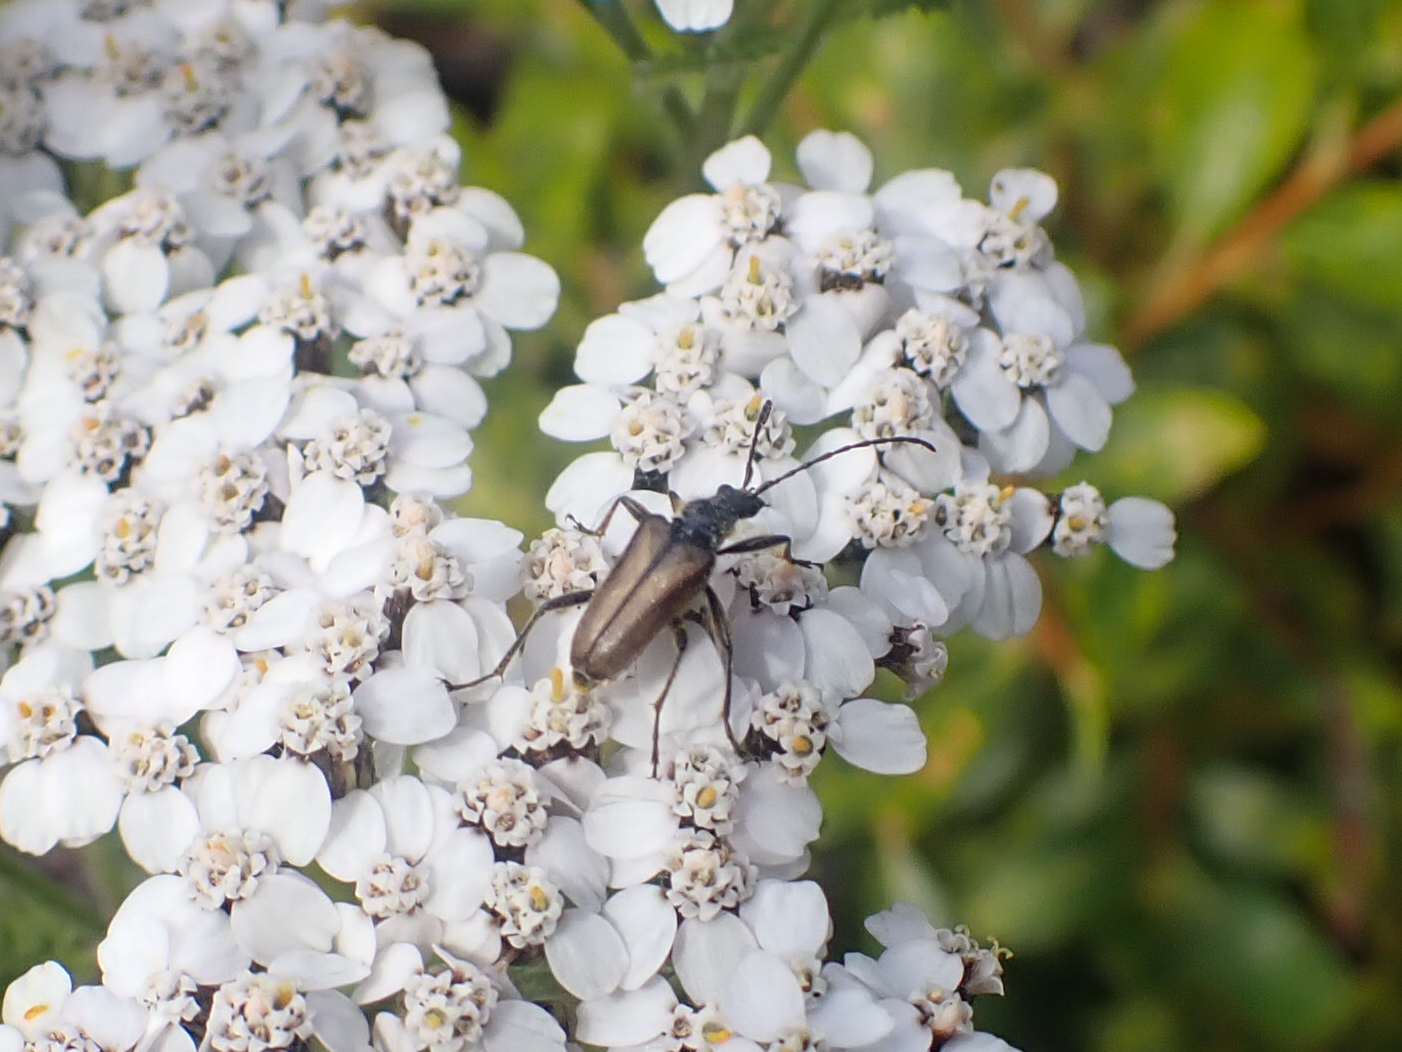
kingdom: Animalia
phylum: Arthropoda
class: Insecta
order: Coleoptera
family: Cerambycidae
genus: Gnathacmaeops
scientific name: Gnathacmaeops pratensis
